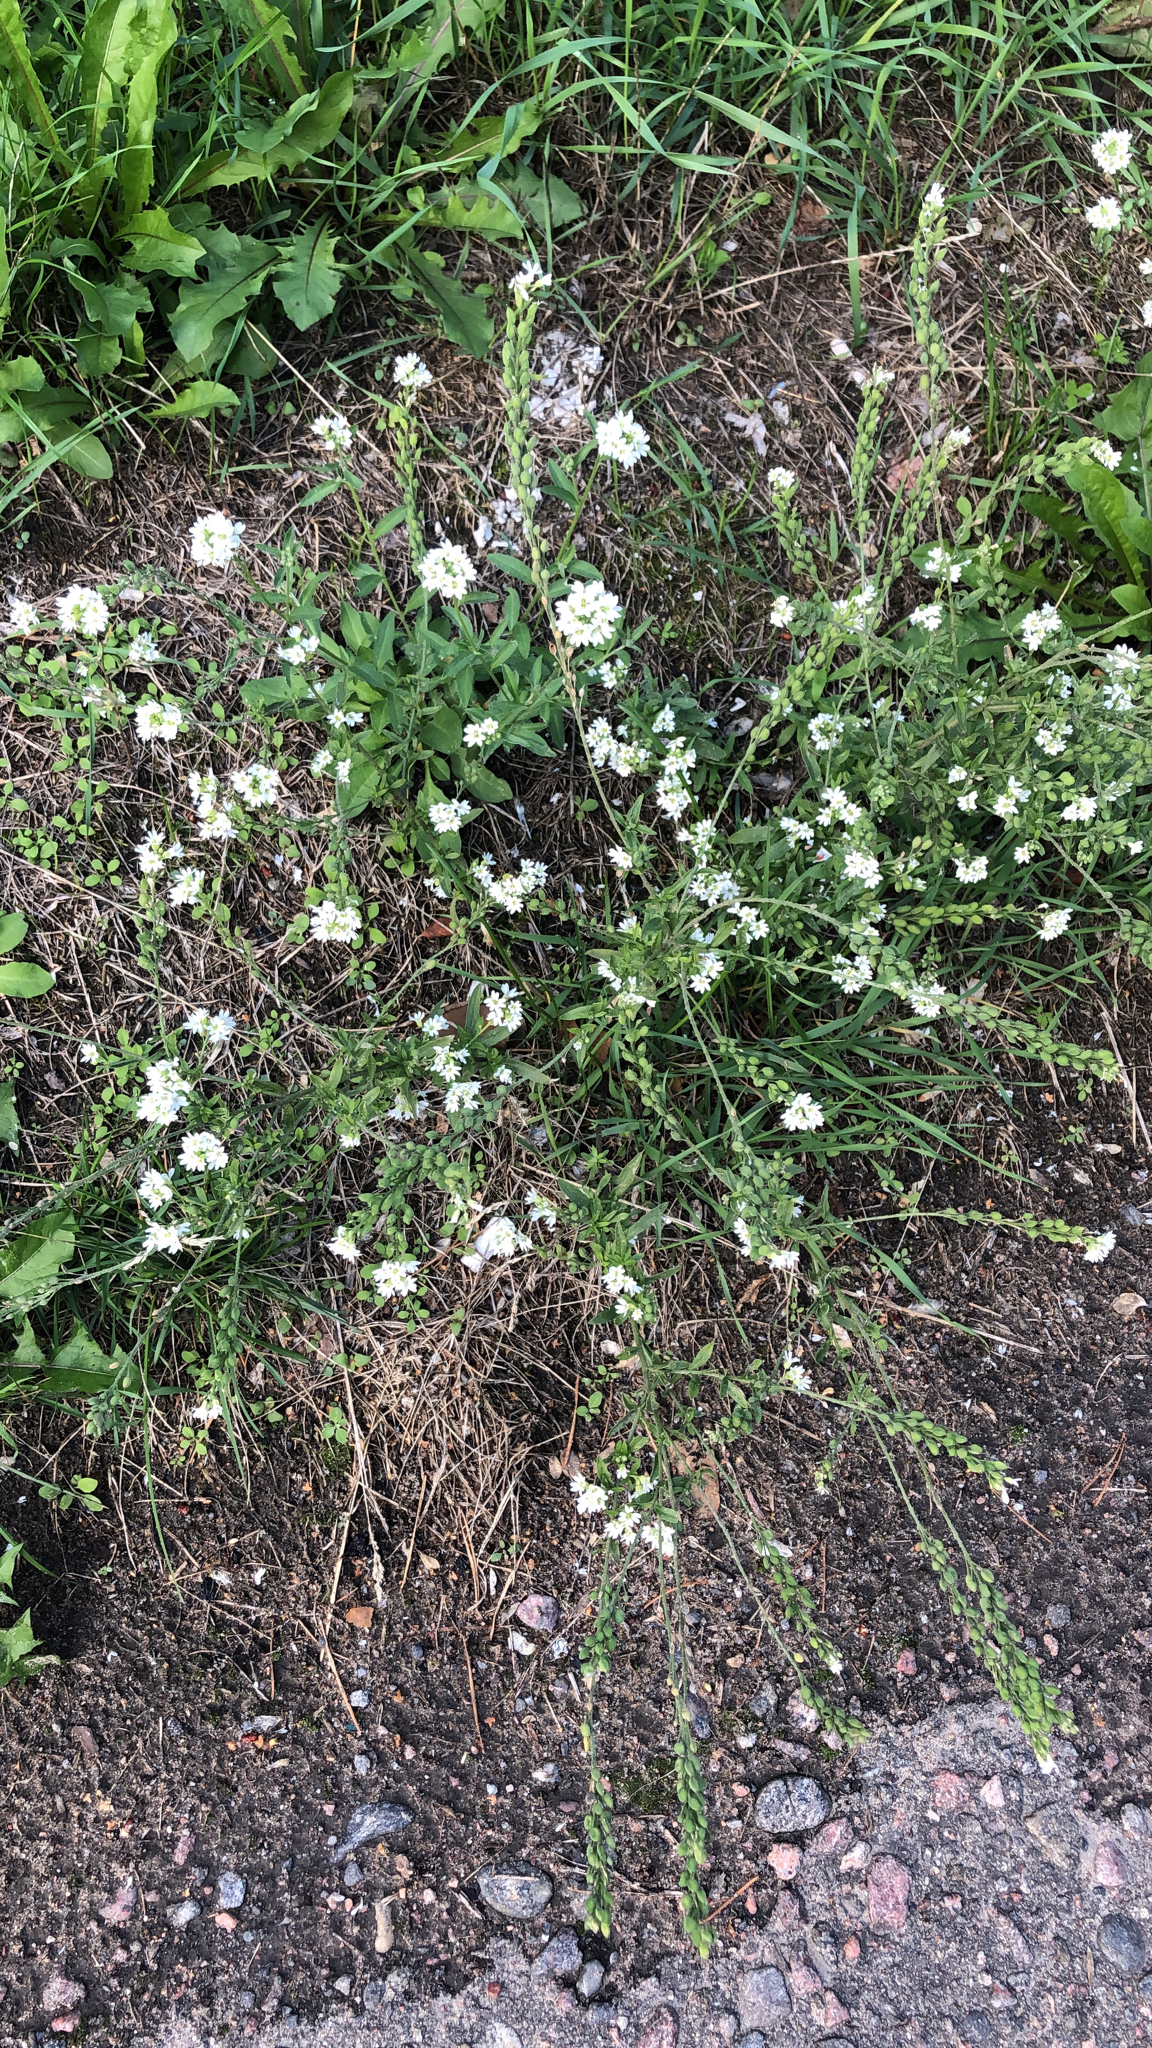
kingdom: Plantae
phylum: Tracheophyta
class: Magnoliopsida
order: Brassicales
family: Brassicaceae
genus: Berteroa
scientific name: Berteroa incana
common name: Hoary alison
